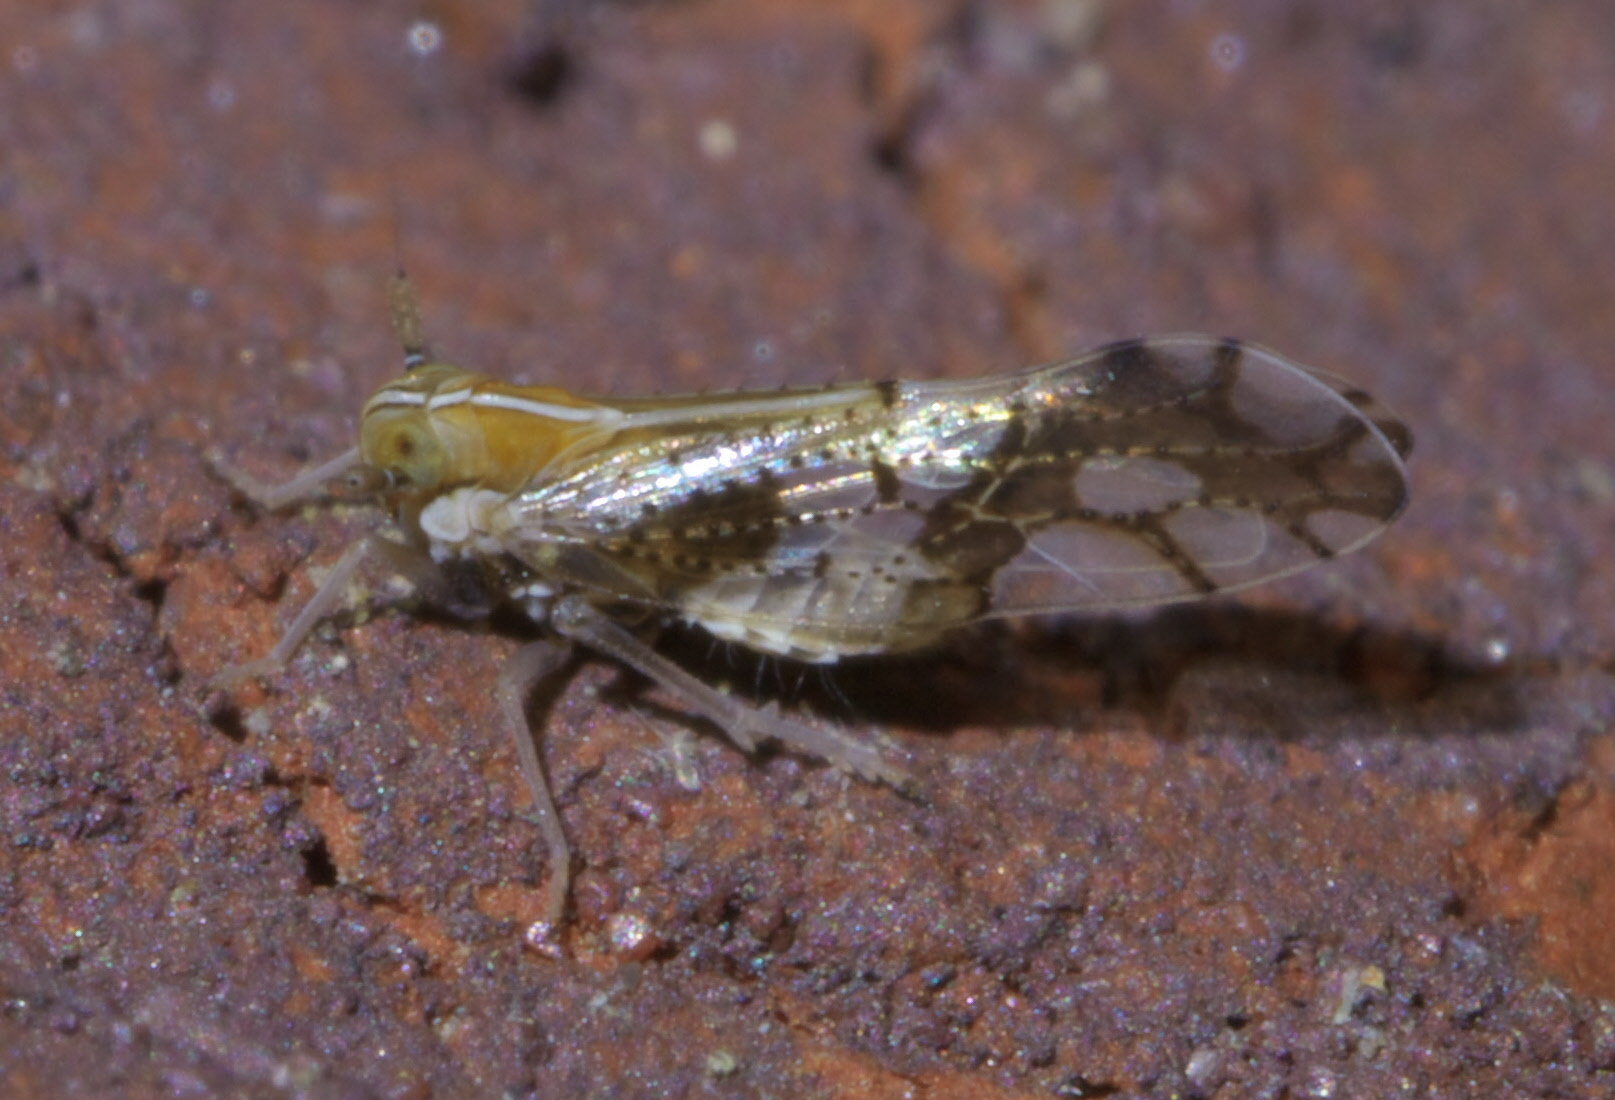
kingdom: Animalia
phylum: Arthropoda
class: Insecta
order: Hemiptera
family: Delphacidae
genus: Liburniella
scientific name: Liburniella ornata
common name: Ornate planthopper
